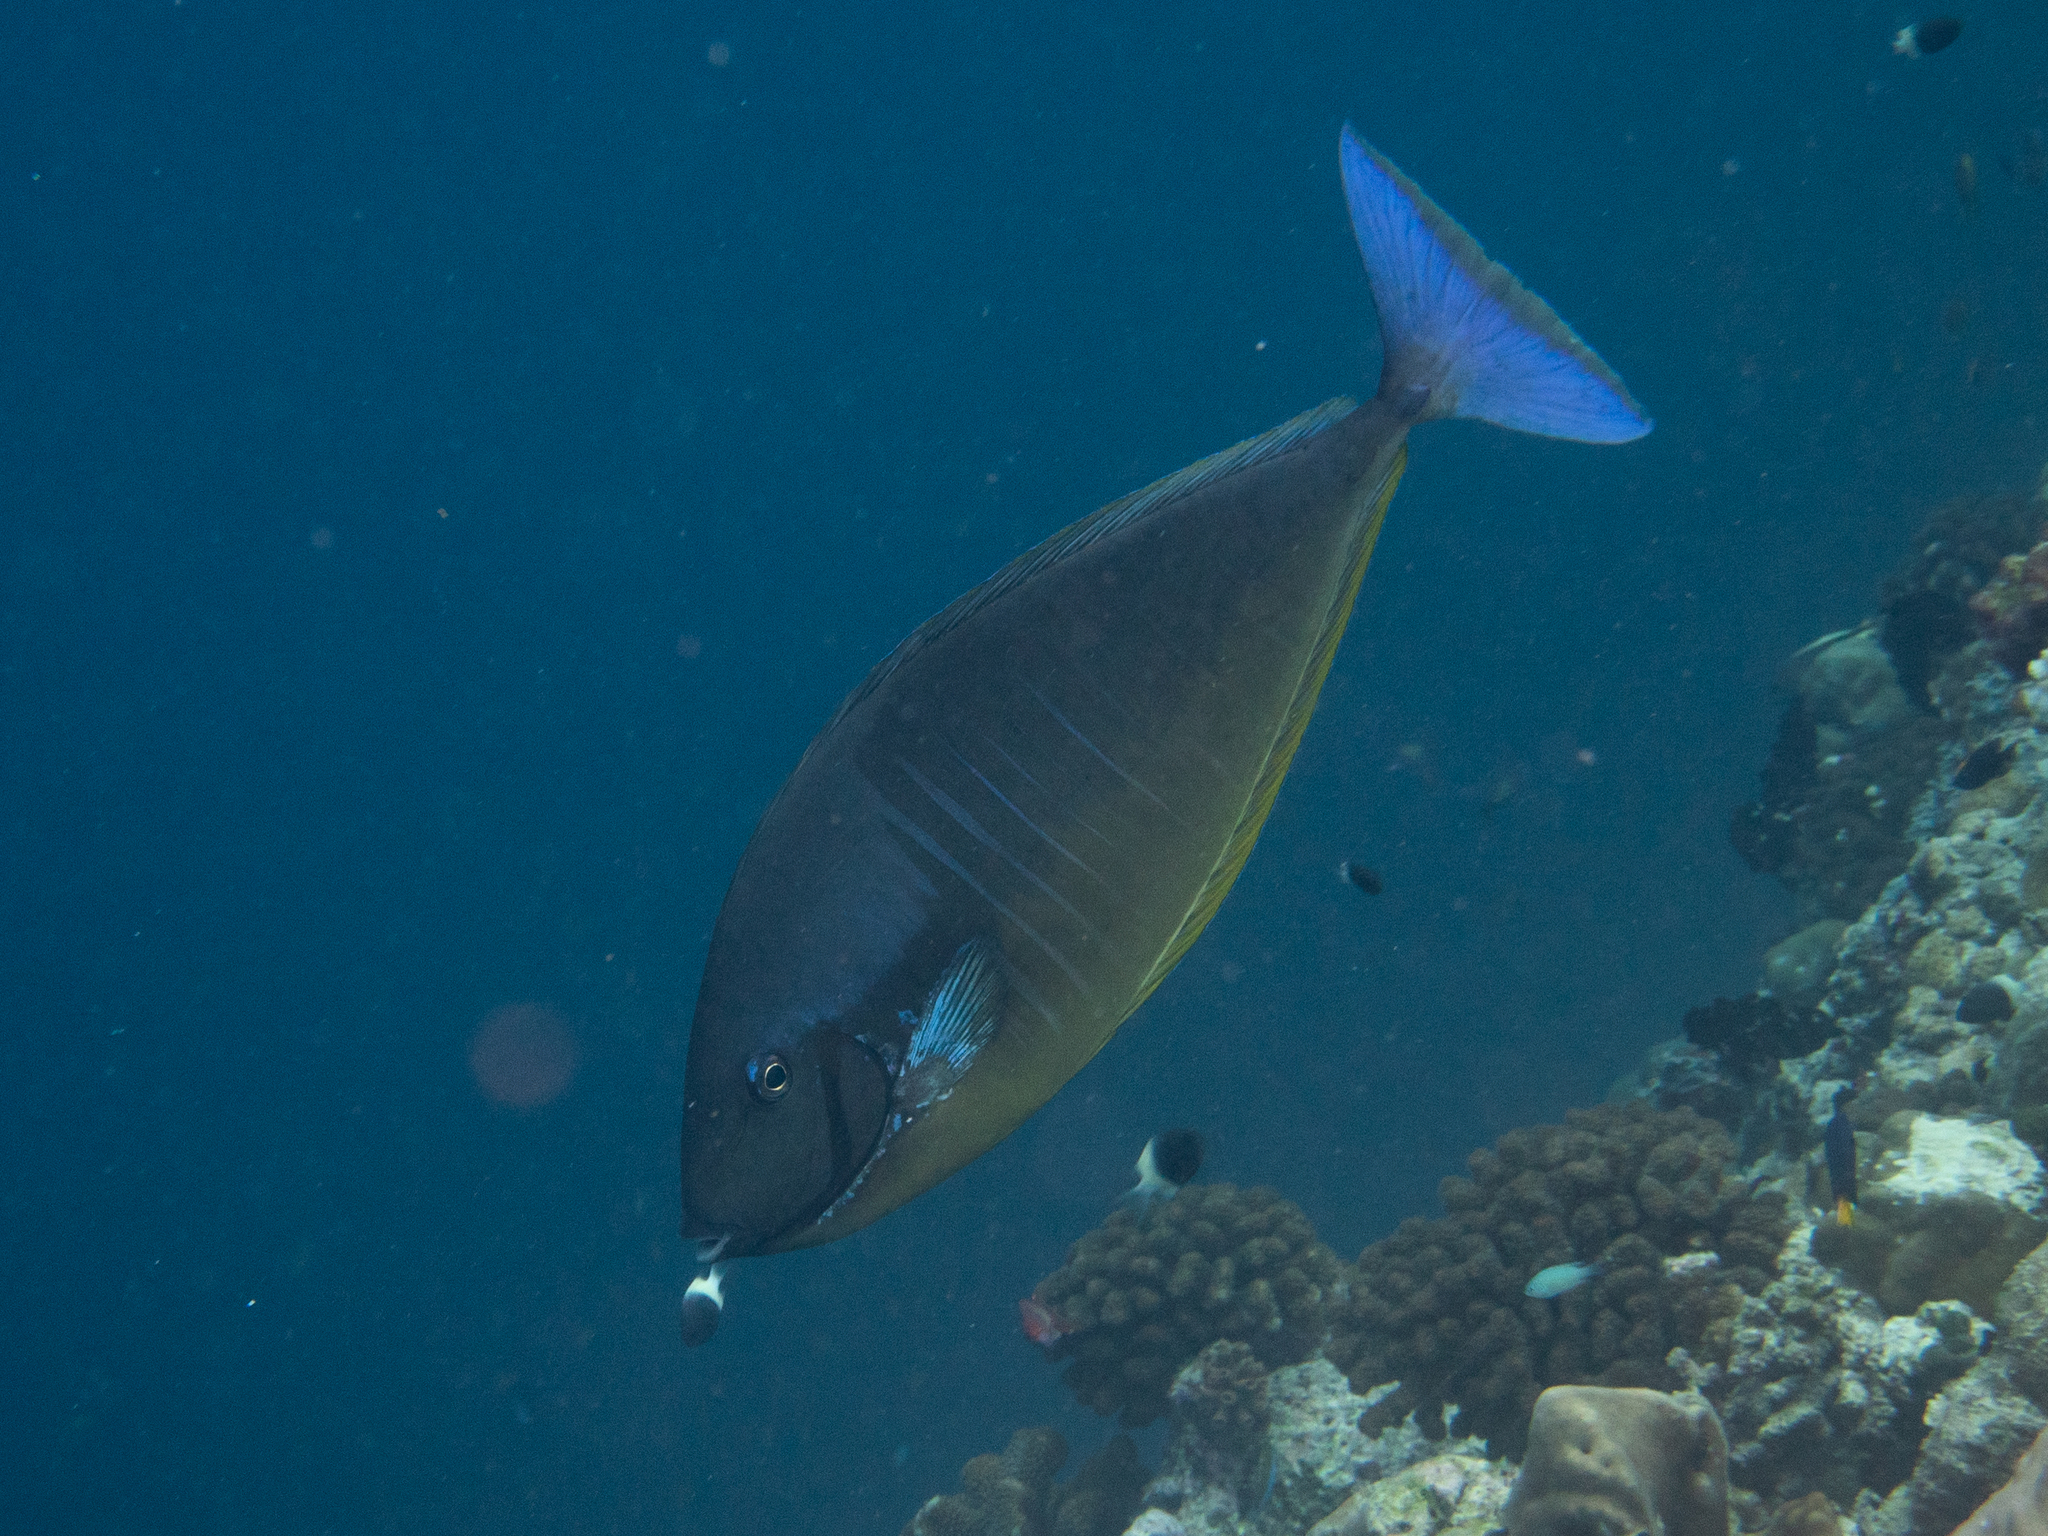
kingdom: Animalia
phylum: Chordata
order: Perciformes
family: Acanthuridae
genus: Naso
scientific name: Naso hexacanthus
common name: Black unicornfish
